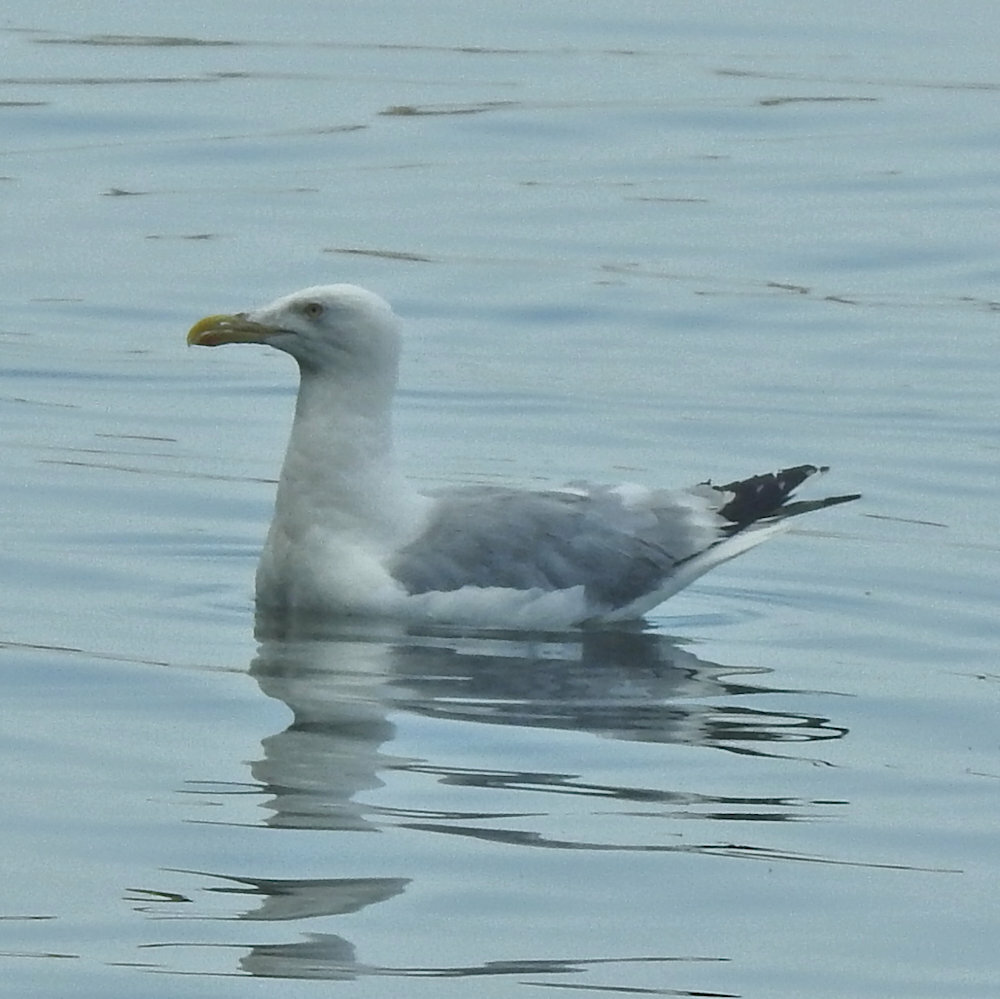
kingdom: Animalia
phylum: Chordata
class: Aves
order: Charadriiformes
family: Laridae
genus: Larus
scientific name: Larus argentatus
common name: Herring gull
